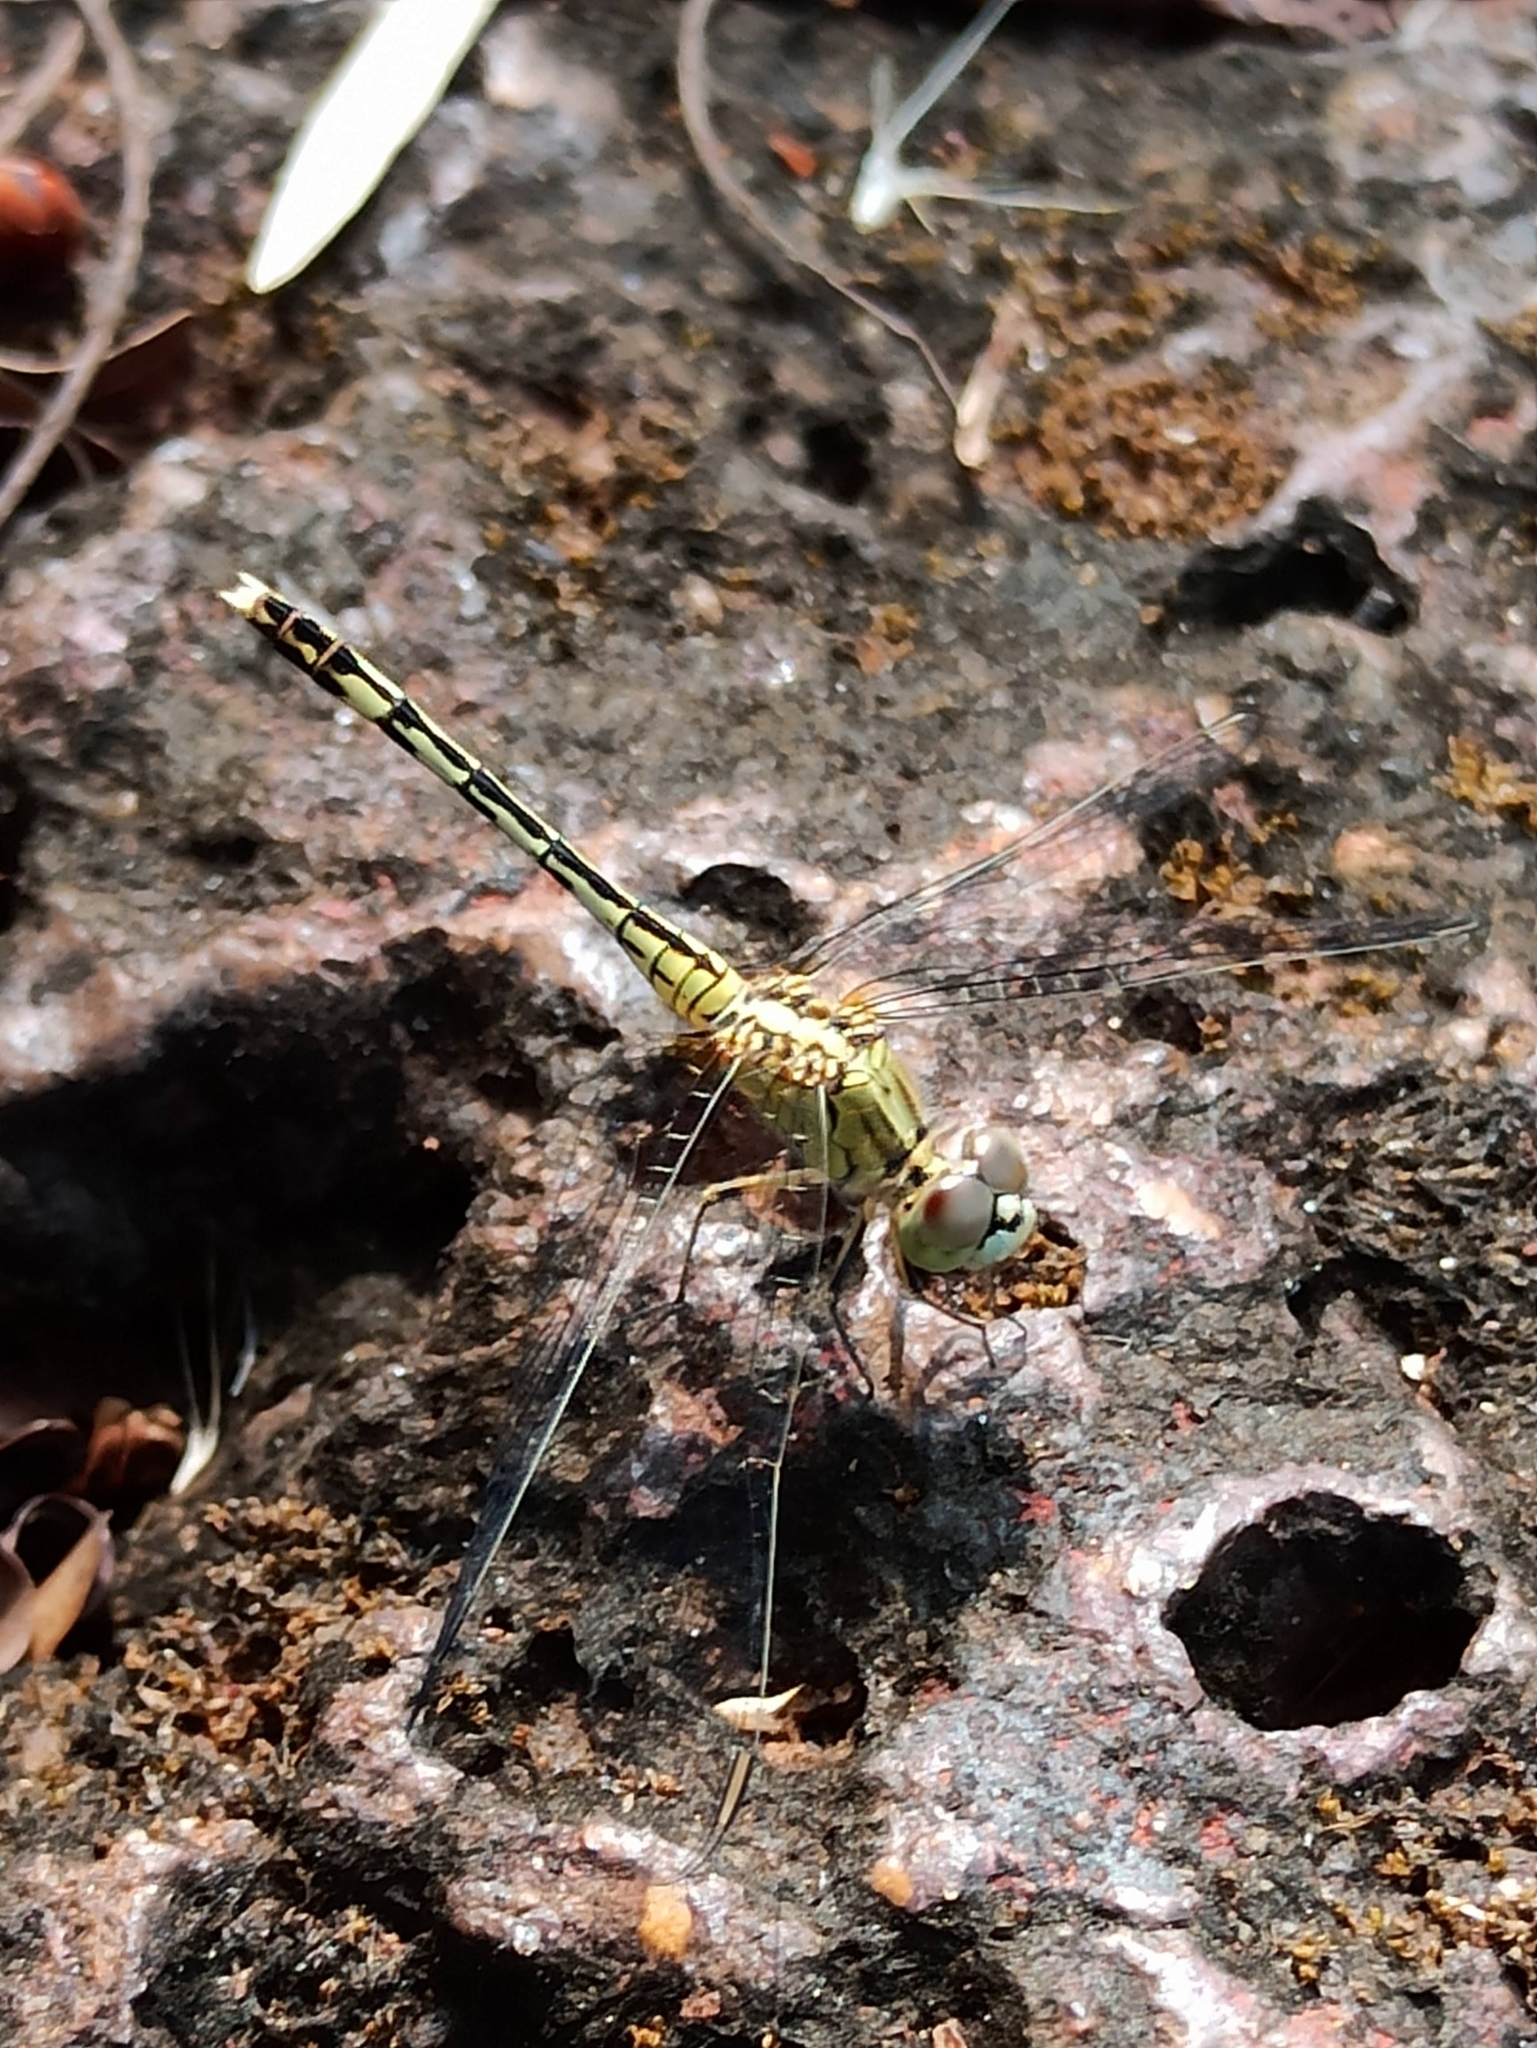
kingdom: Animalia
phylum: Arthropoda
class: Insecta
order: Odonata
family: Libellulidae
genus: Diplacodes
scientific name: Diplacodes trivialis
